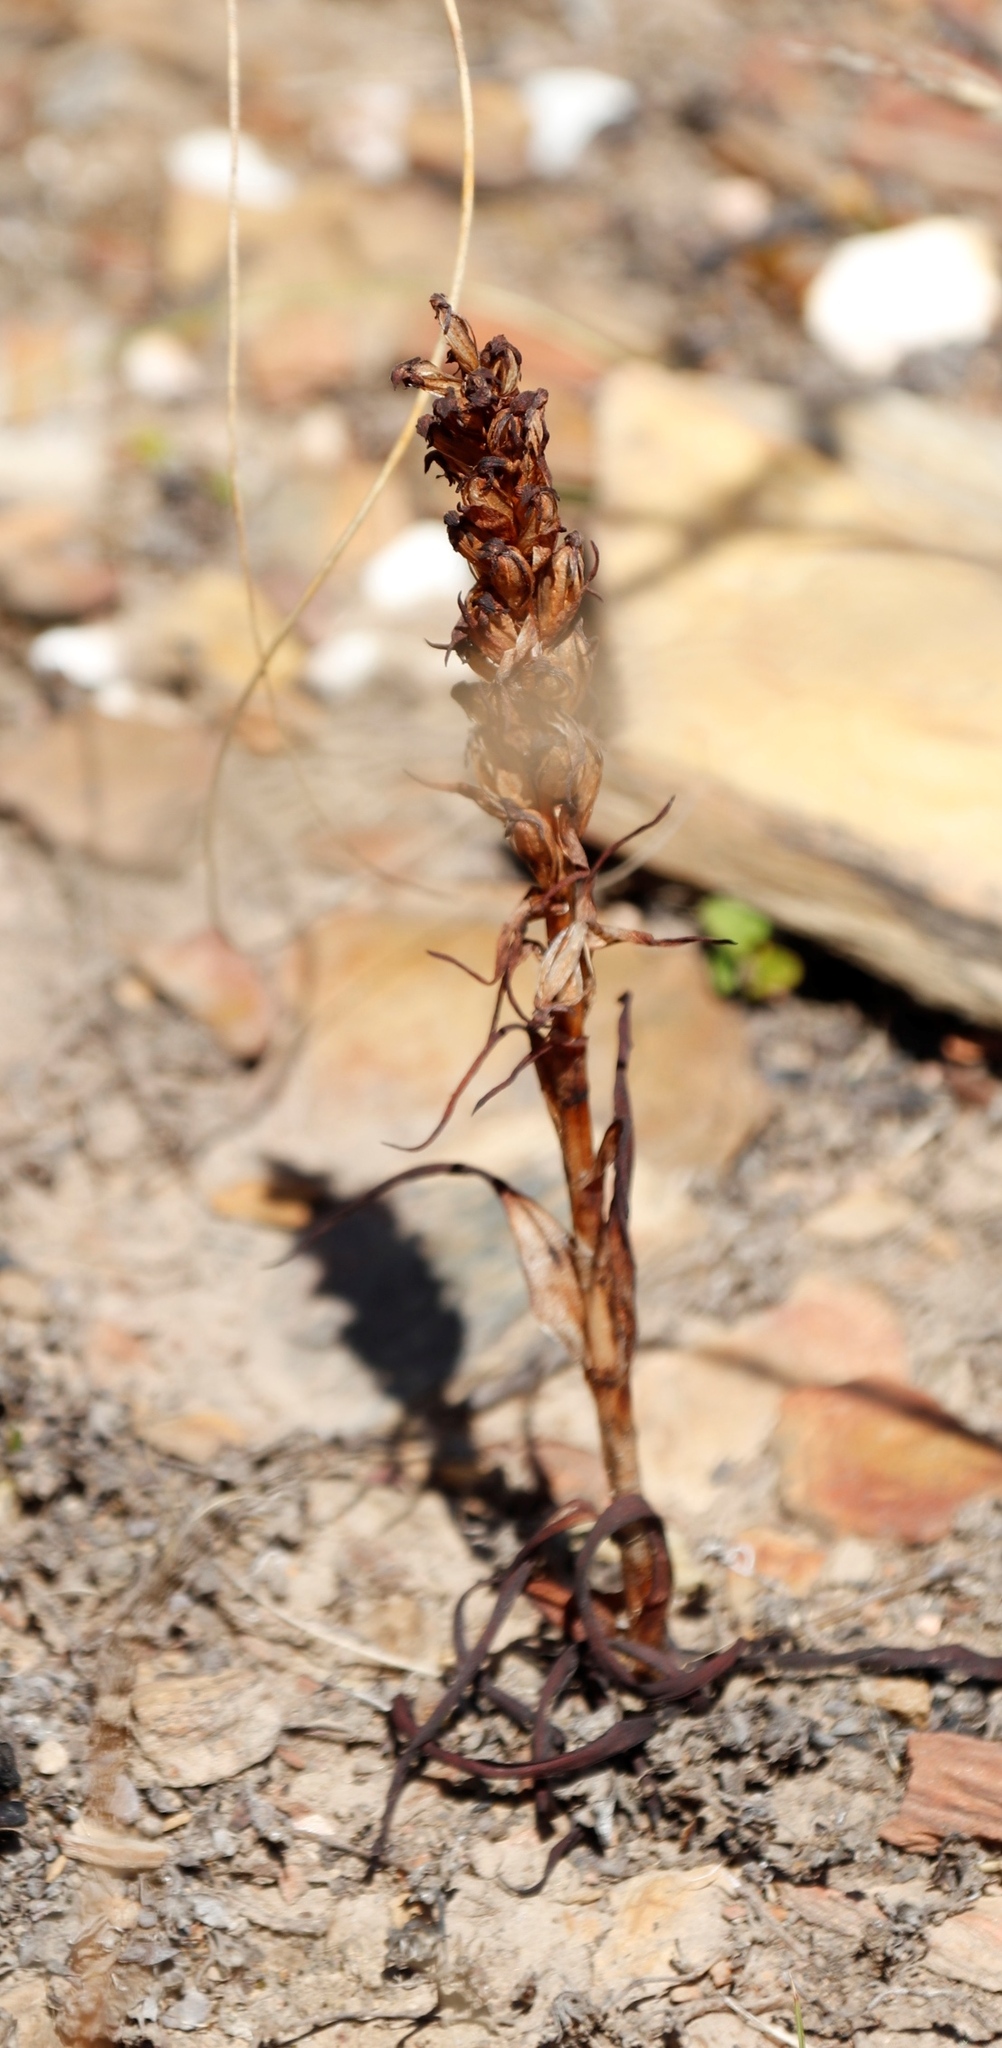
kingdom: Plantae
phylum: Tracheophyta
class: Liliopsida
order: Asparagales
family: Orchidaceae
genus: Disa
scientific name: Disa bracteata
